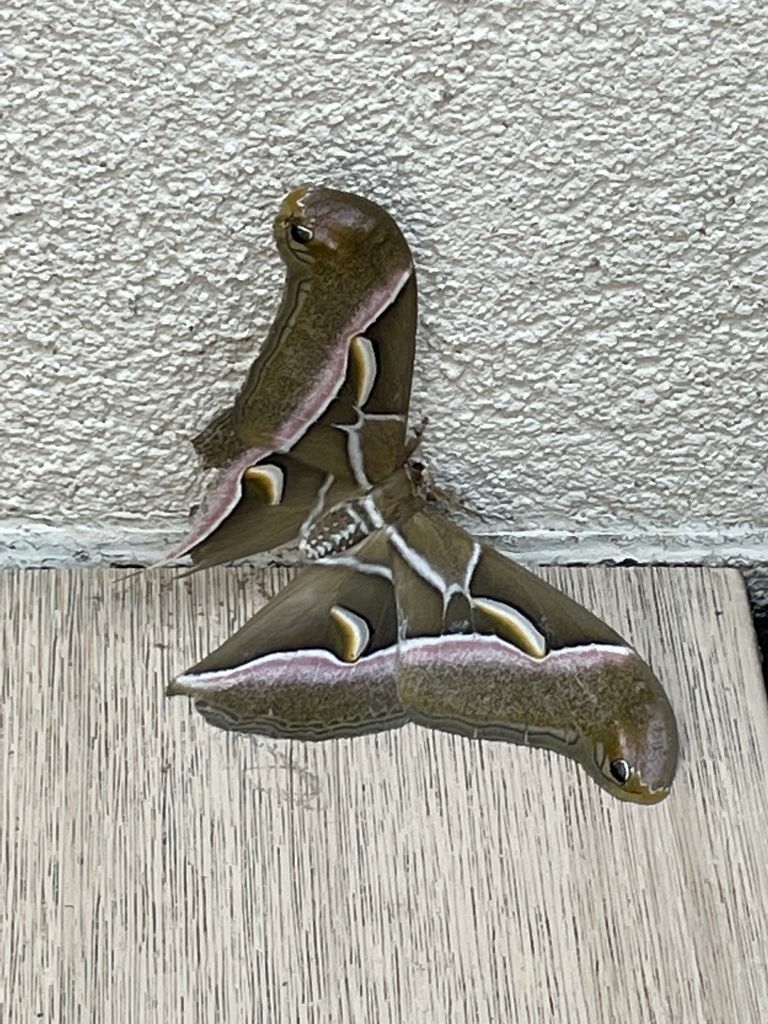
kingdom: Animalia
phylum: Arthropoda
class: Insecta
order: Lepidoptera
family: Saturniidae
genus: Samia
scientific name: Samia cynthia
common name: Ailanthus silkmoth
